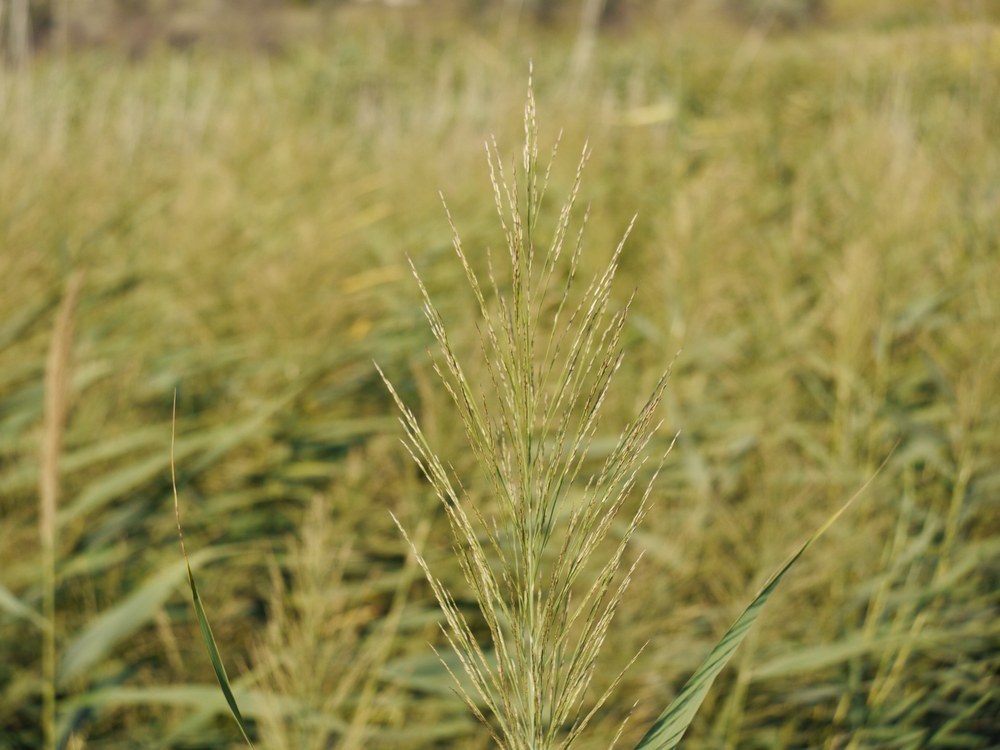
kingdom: Plantae
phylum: Tracheophyta
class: Liliopsida
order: Poales
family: Poaceae
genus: Phragmites
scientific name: Phragmites australis
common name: Common reed
